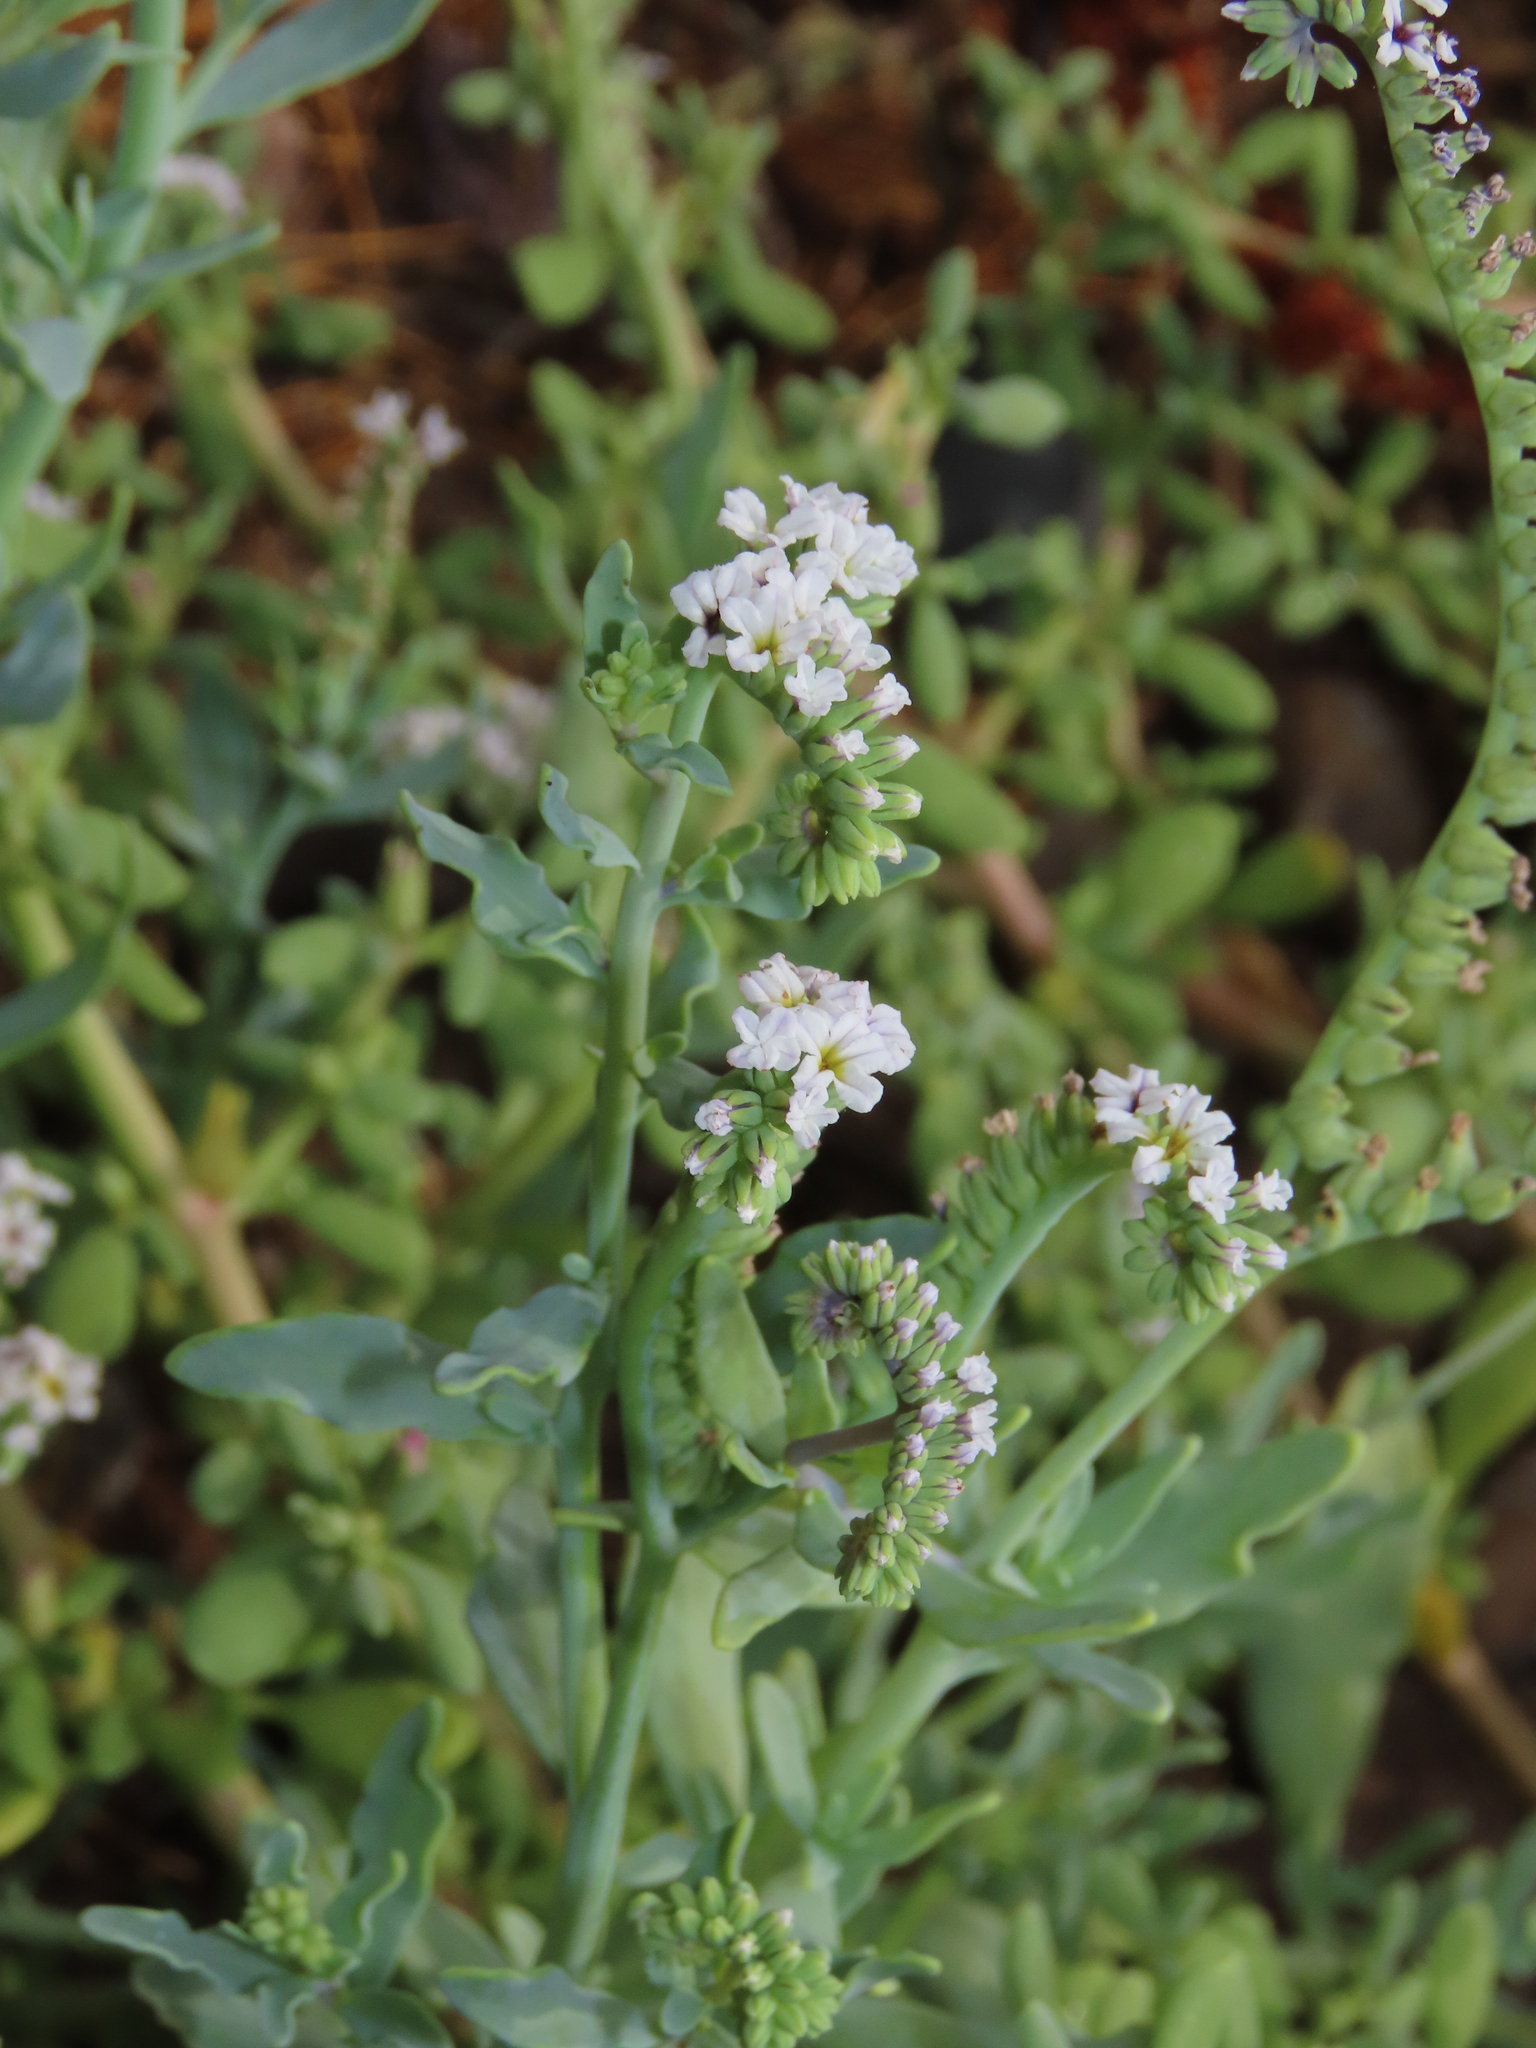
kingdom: Plantae
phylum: Tracheophyta
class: Magnoliopsida
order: Boraginales
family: Heliotropiaceae
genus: Heliotropium
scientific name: Heliotropium curassavicum
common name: Seaside heliotrope
